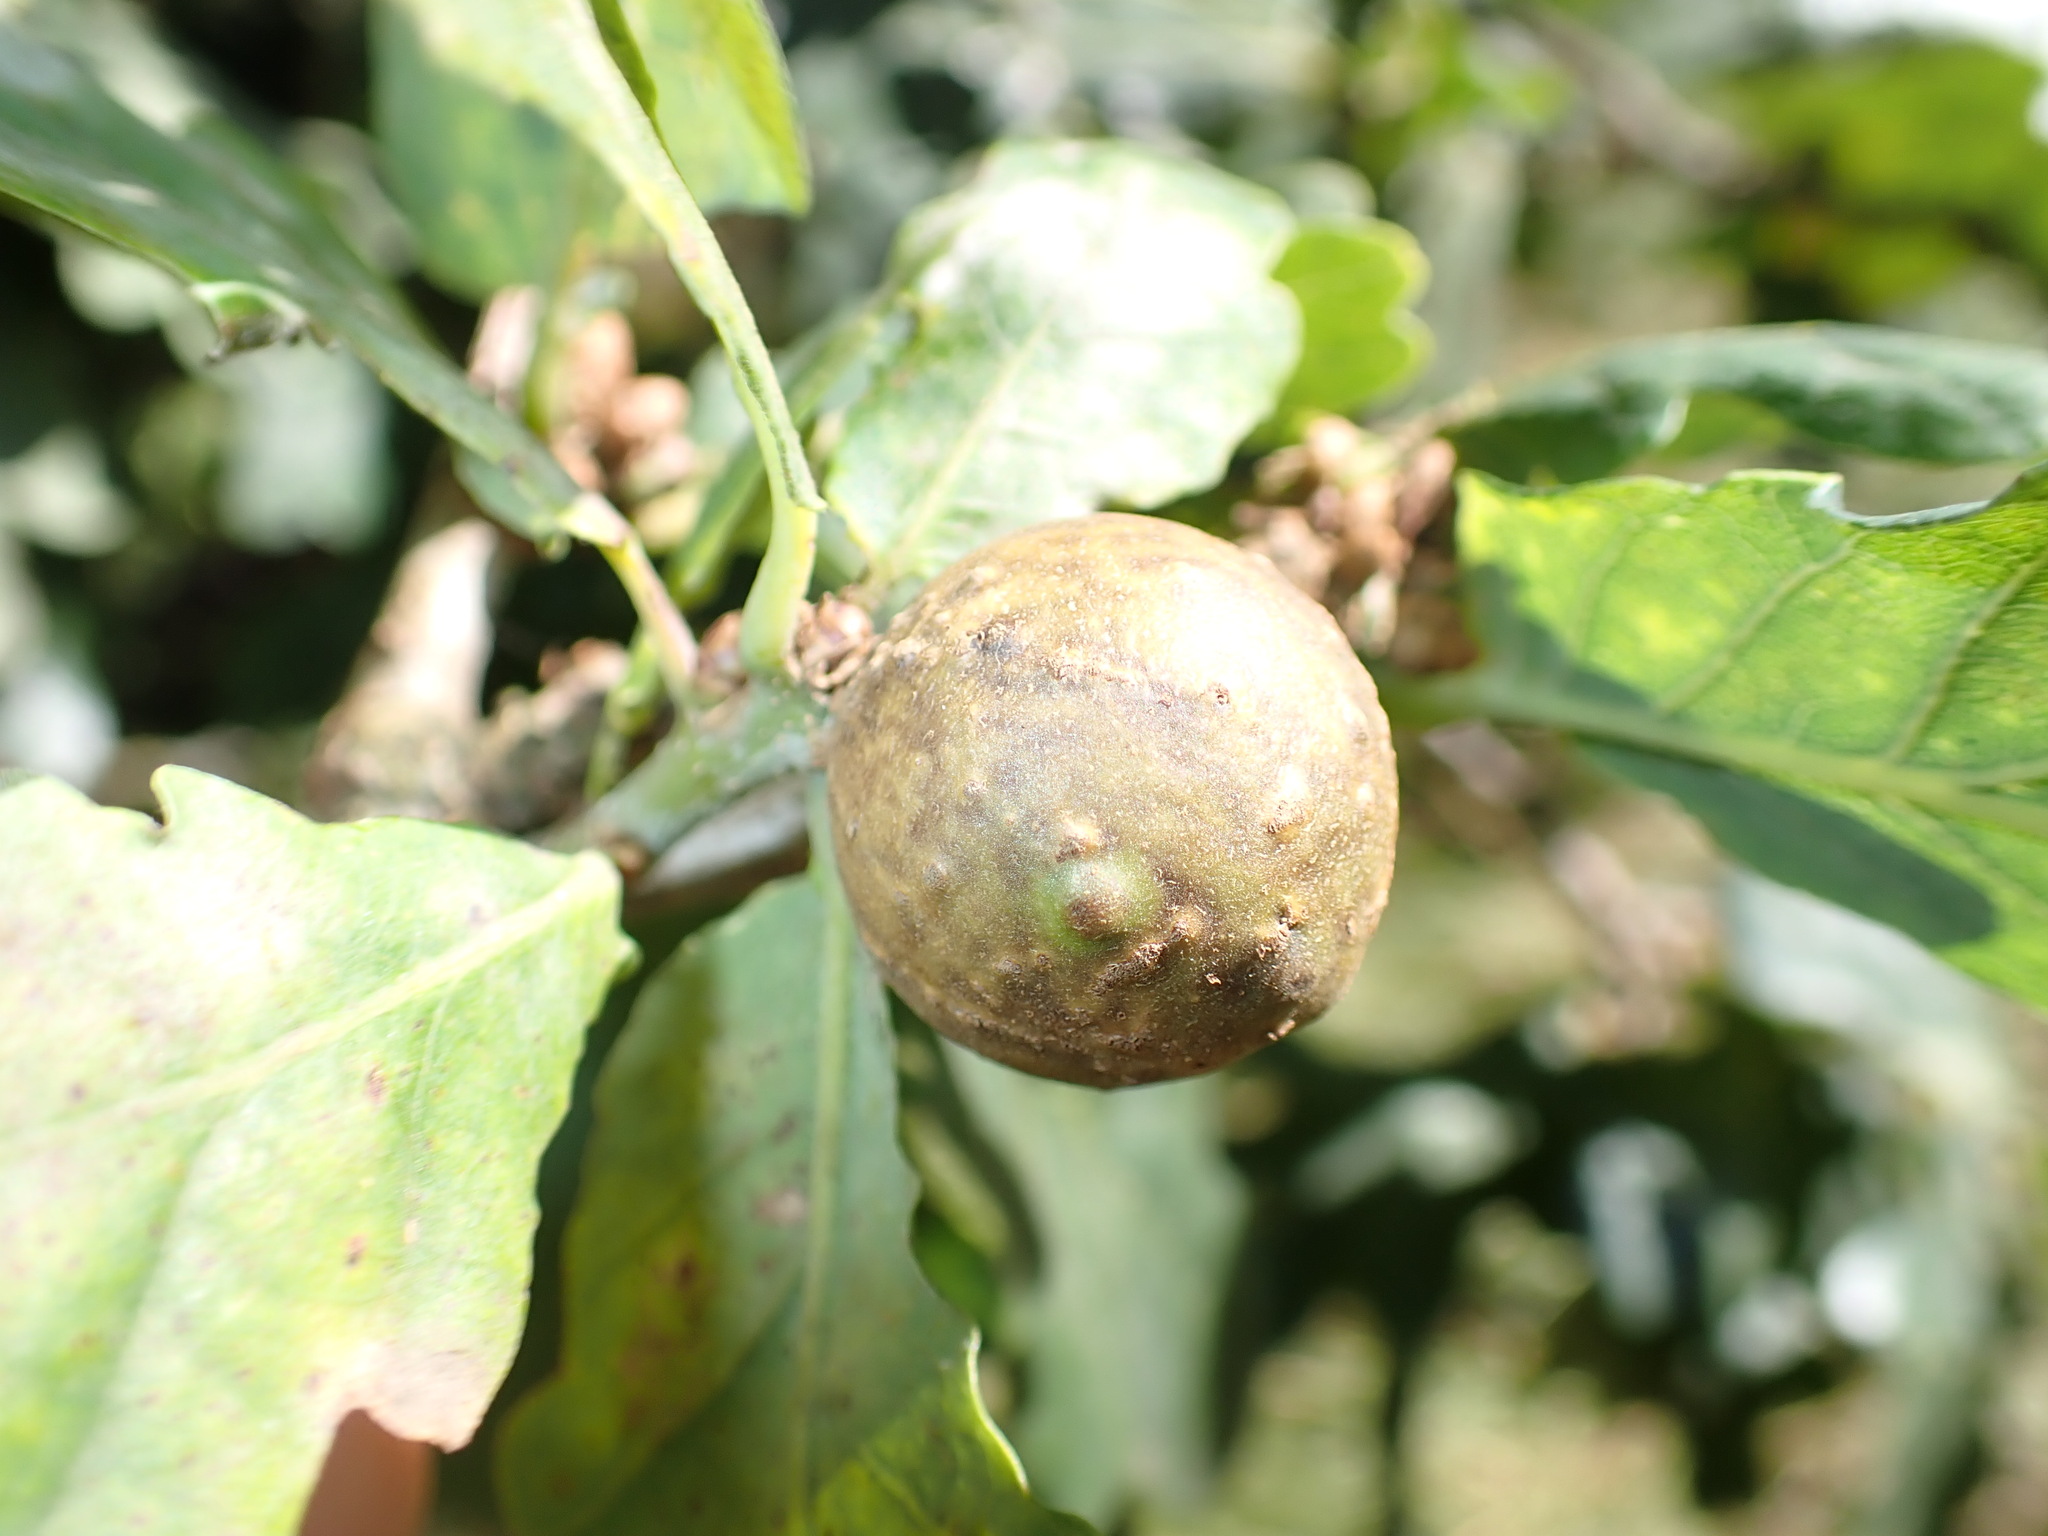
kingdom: Animalia
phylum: Arthropoda
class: Insecta
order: Hymenoptera
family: Cynipidae
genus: Andricus
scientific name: Andricus kollari
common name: Marble gall
